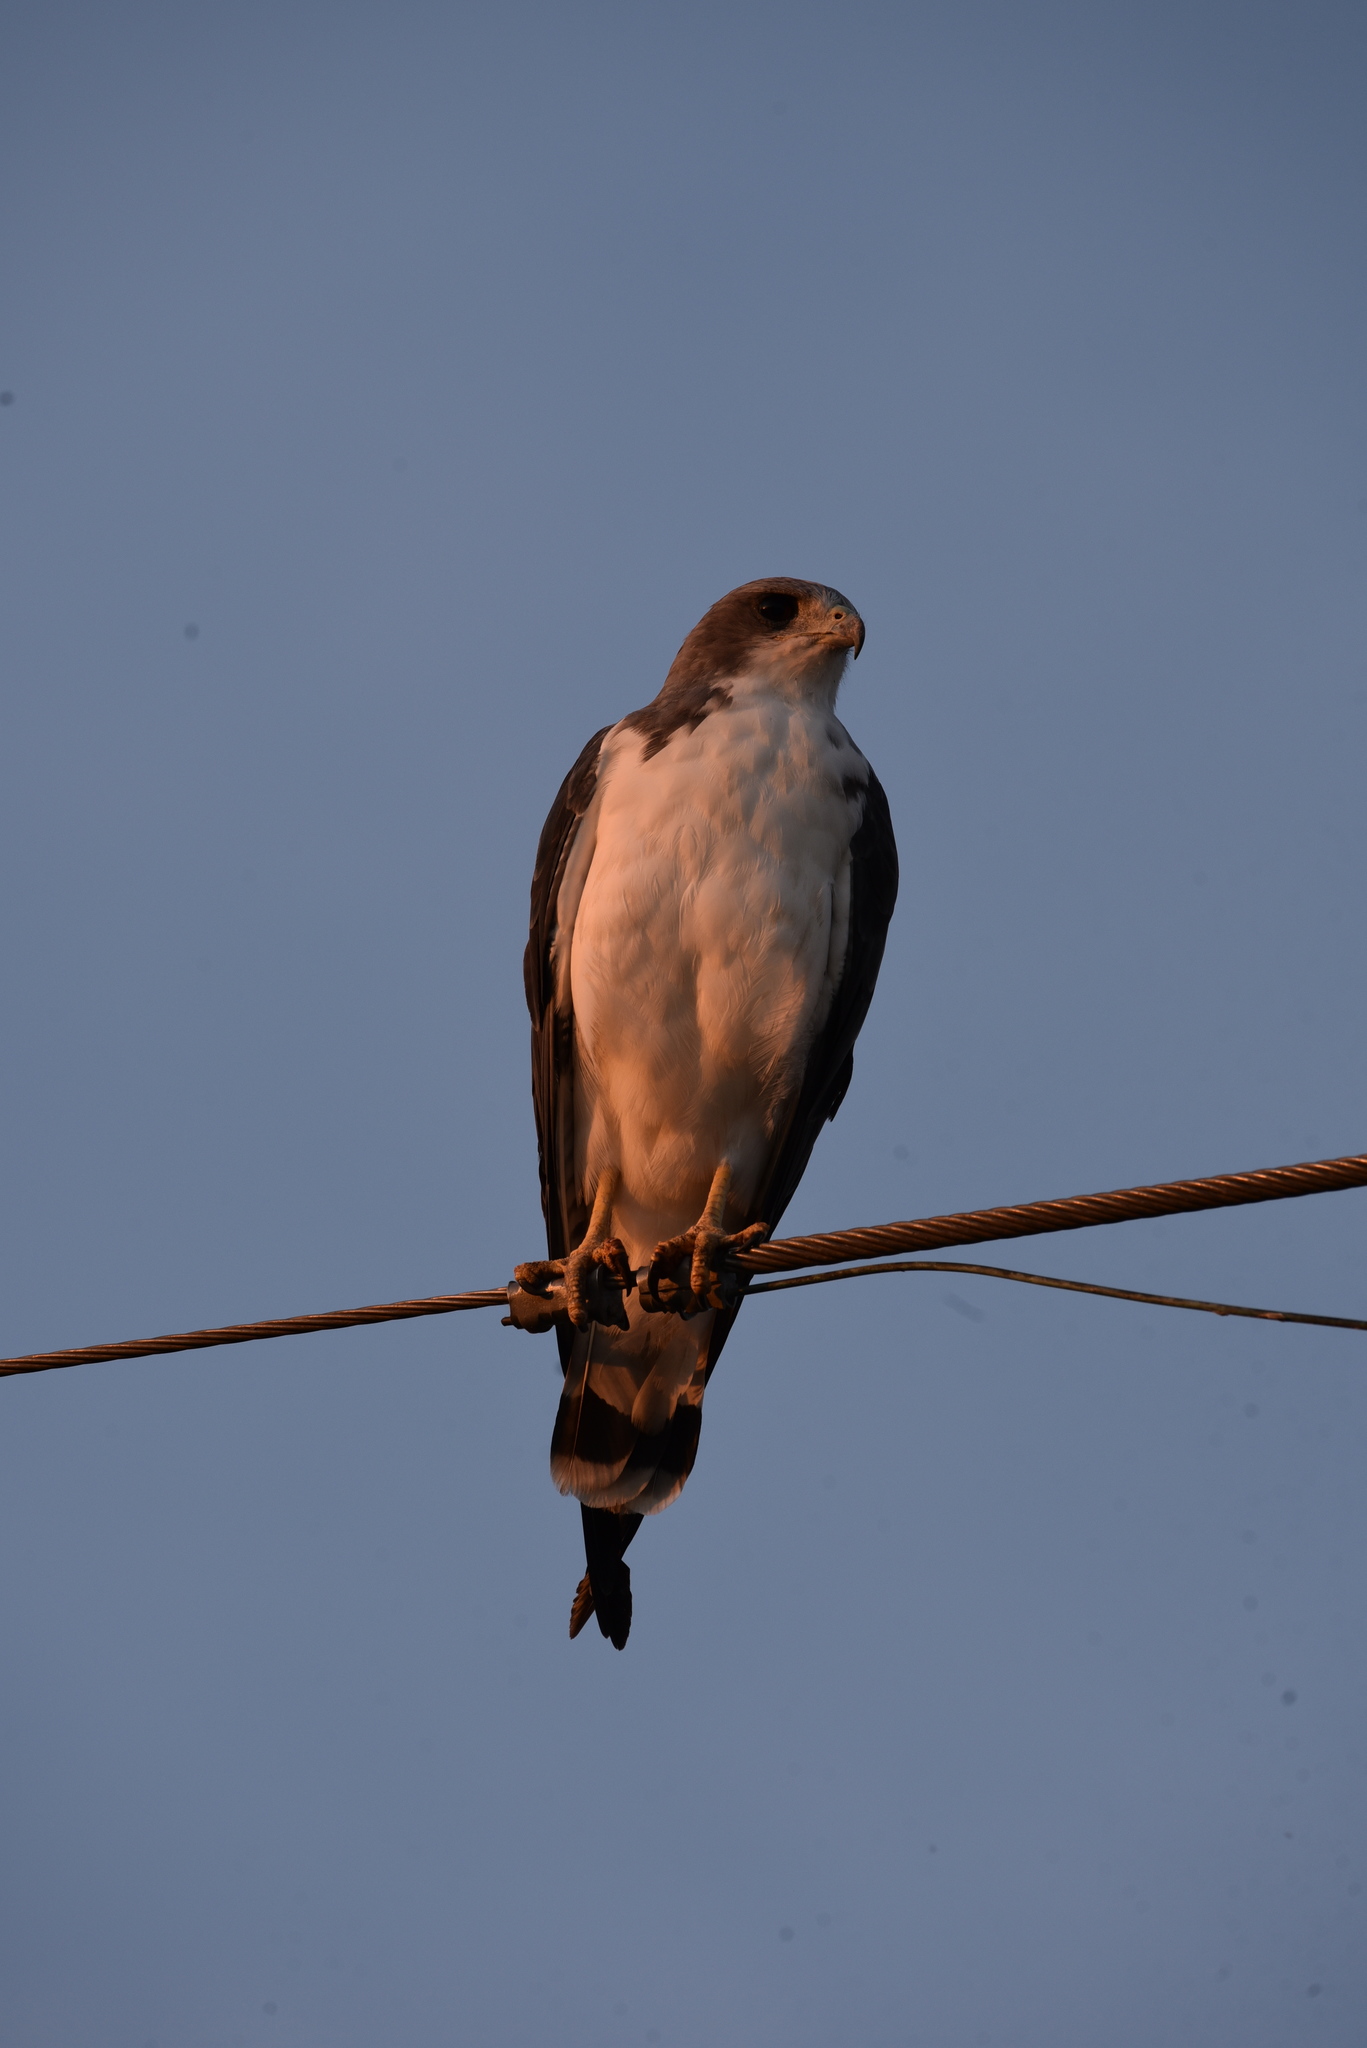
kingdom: Animalia
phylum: Chordata
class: Aves
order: Accipitriformes
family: Accipitridae
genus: Buteo
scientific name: Buteo albicaudatus
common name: White-tailed hawk
